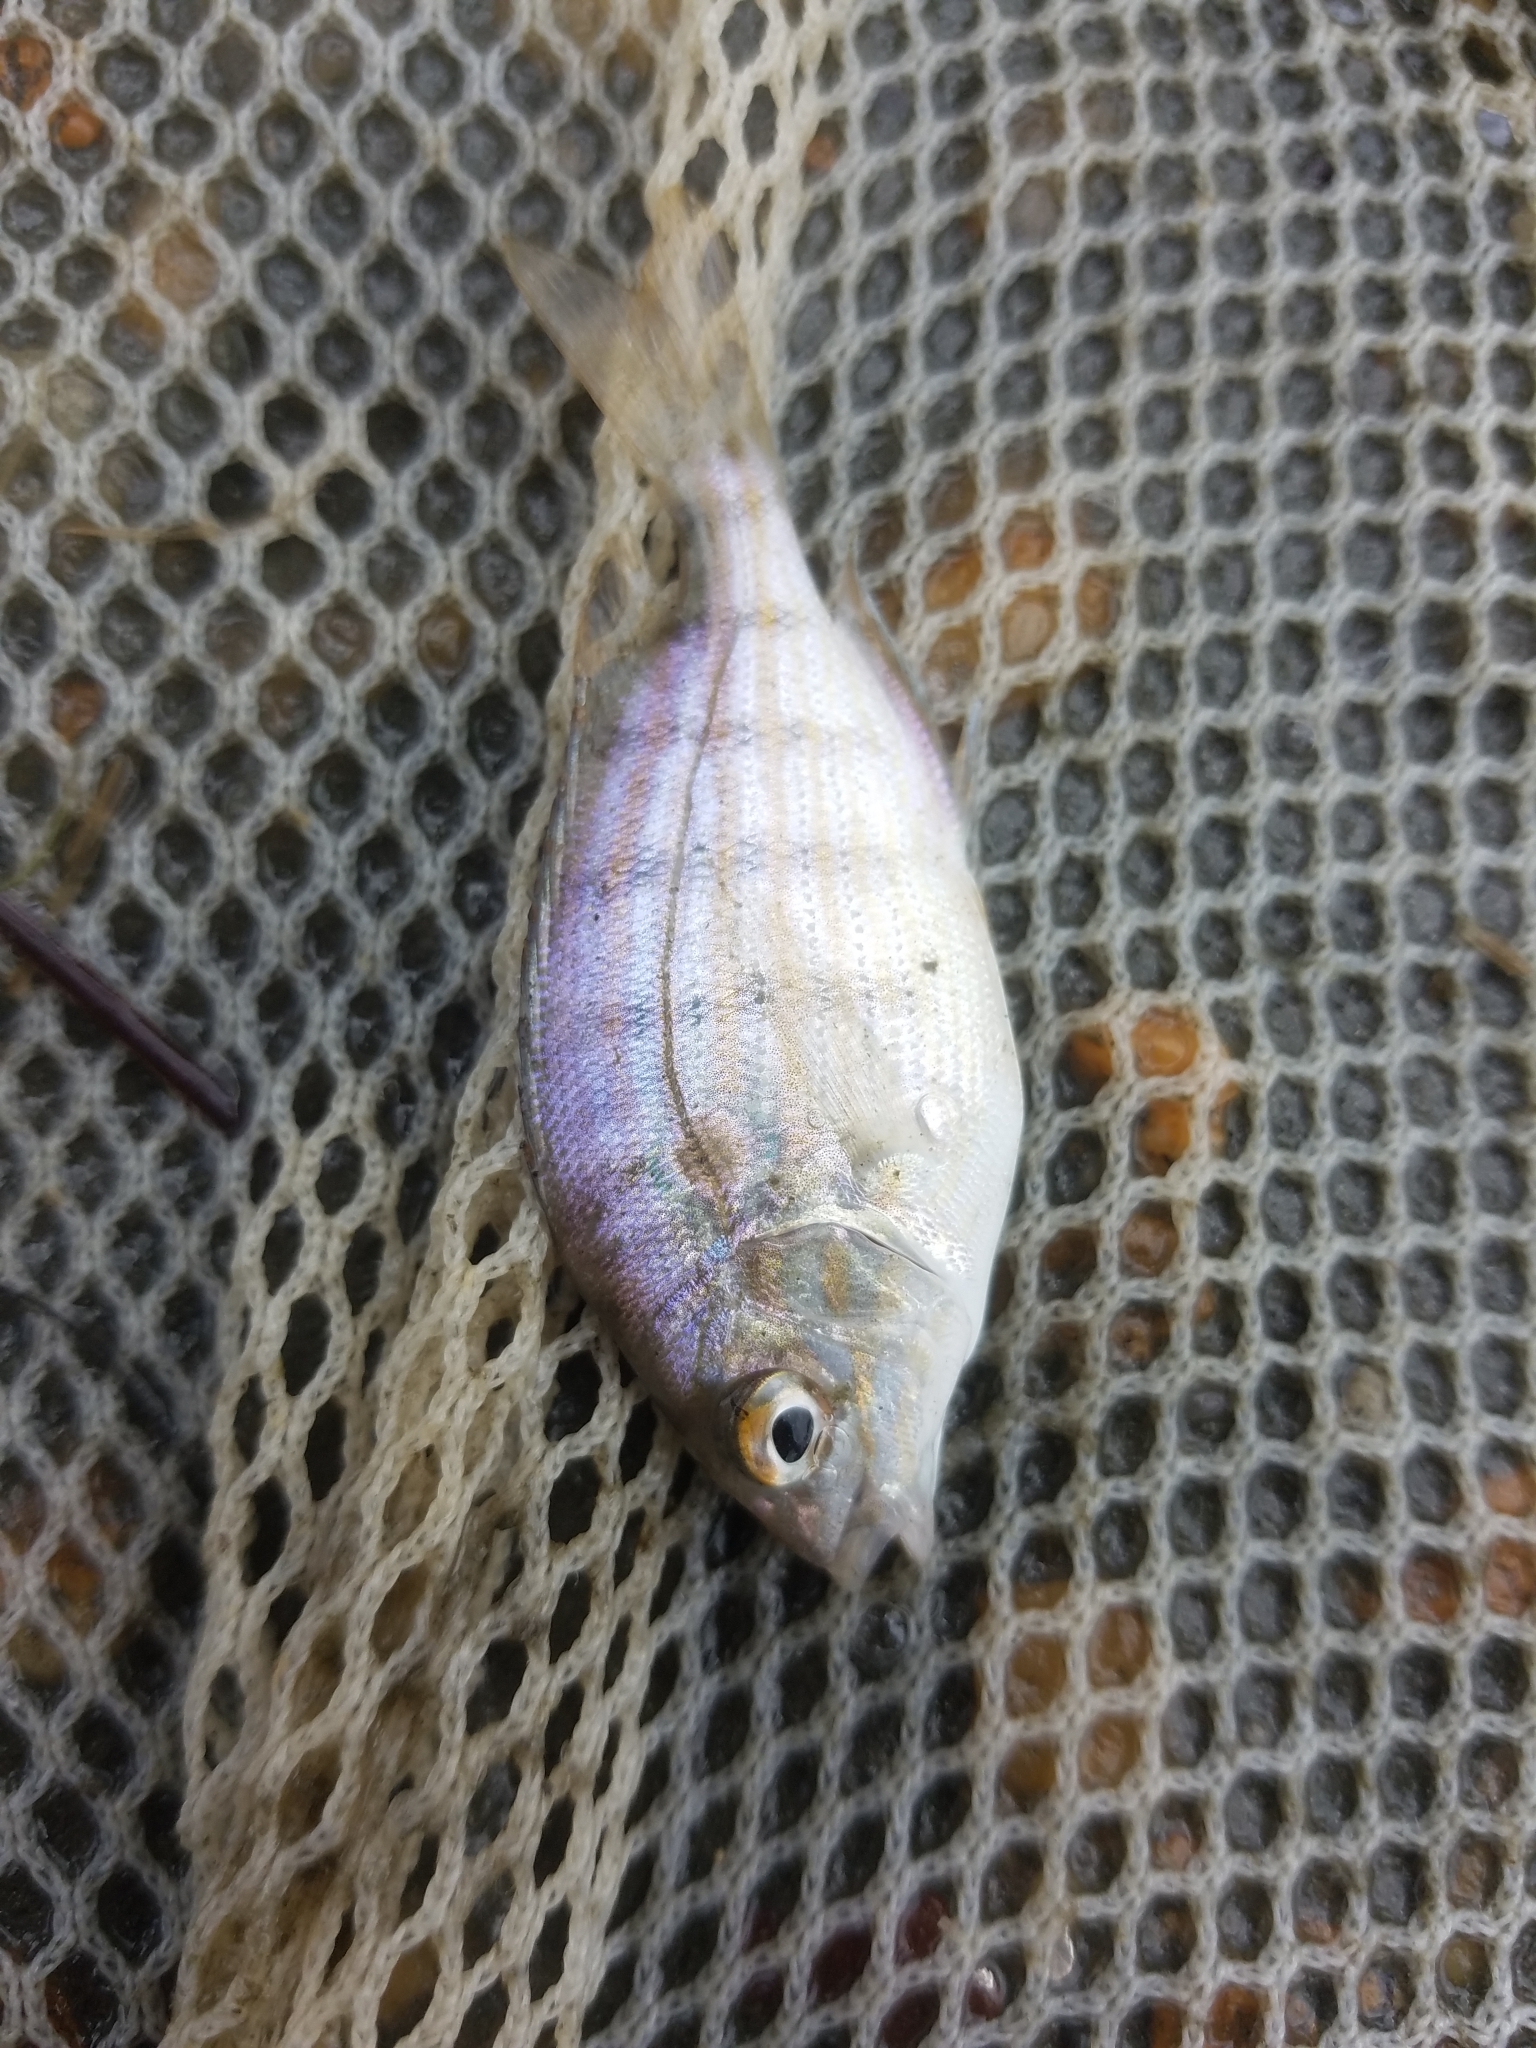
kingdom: Animalia
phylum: Chordata
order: Perciformes
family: Sparidae
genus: Lagodon
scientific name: Lagodon rhomboides
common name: Pinfish
